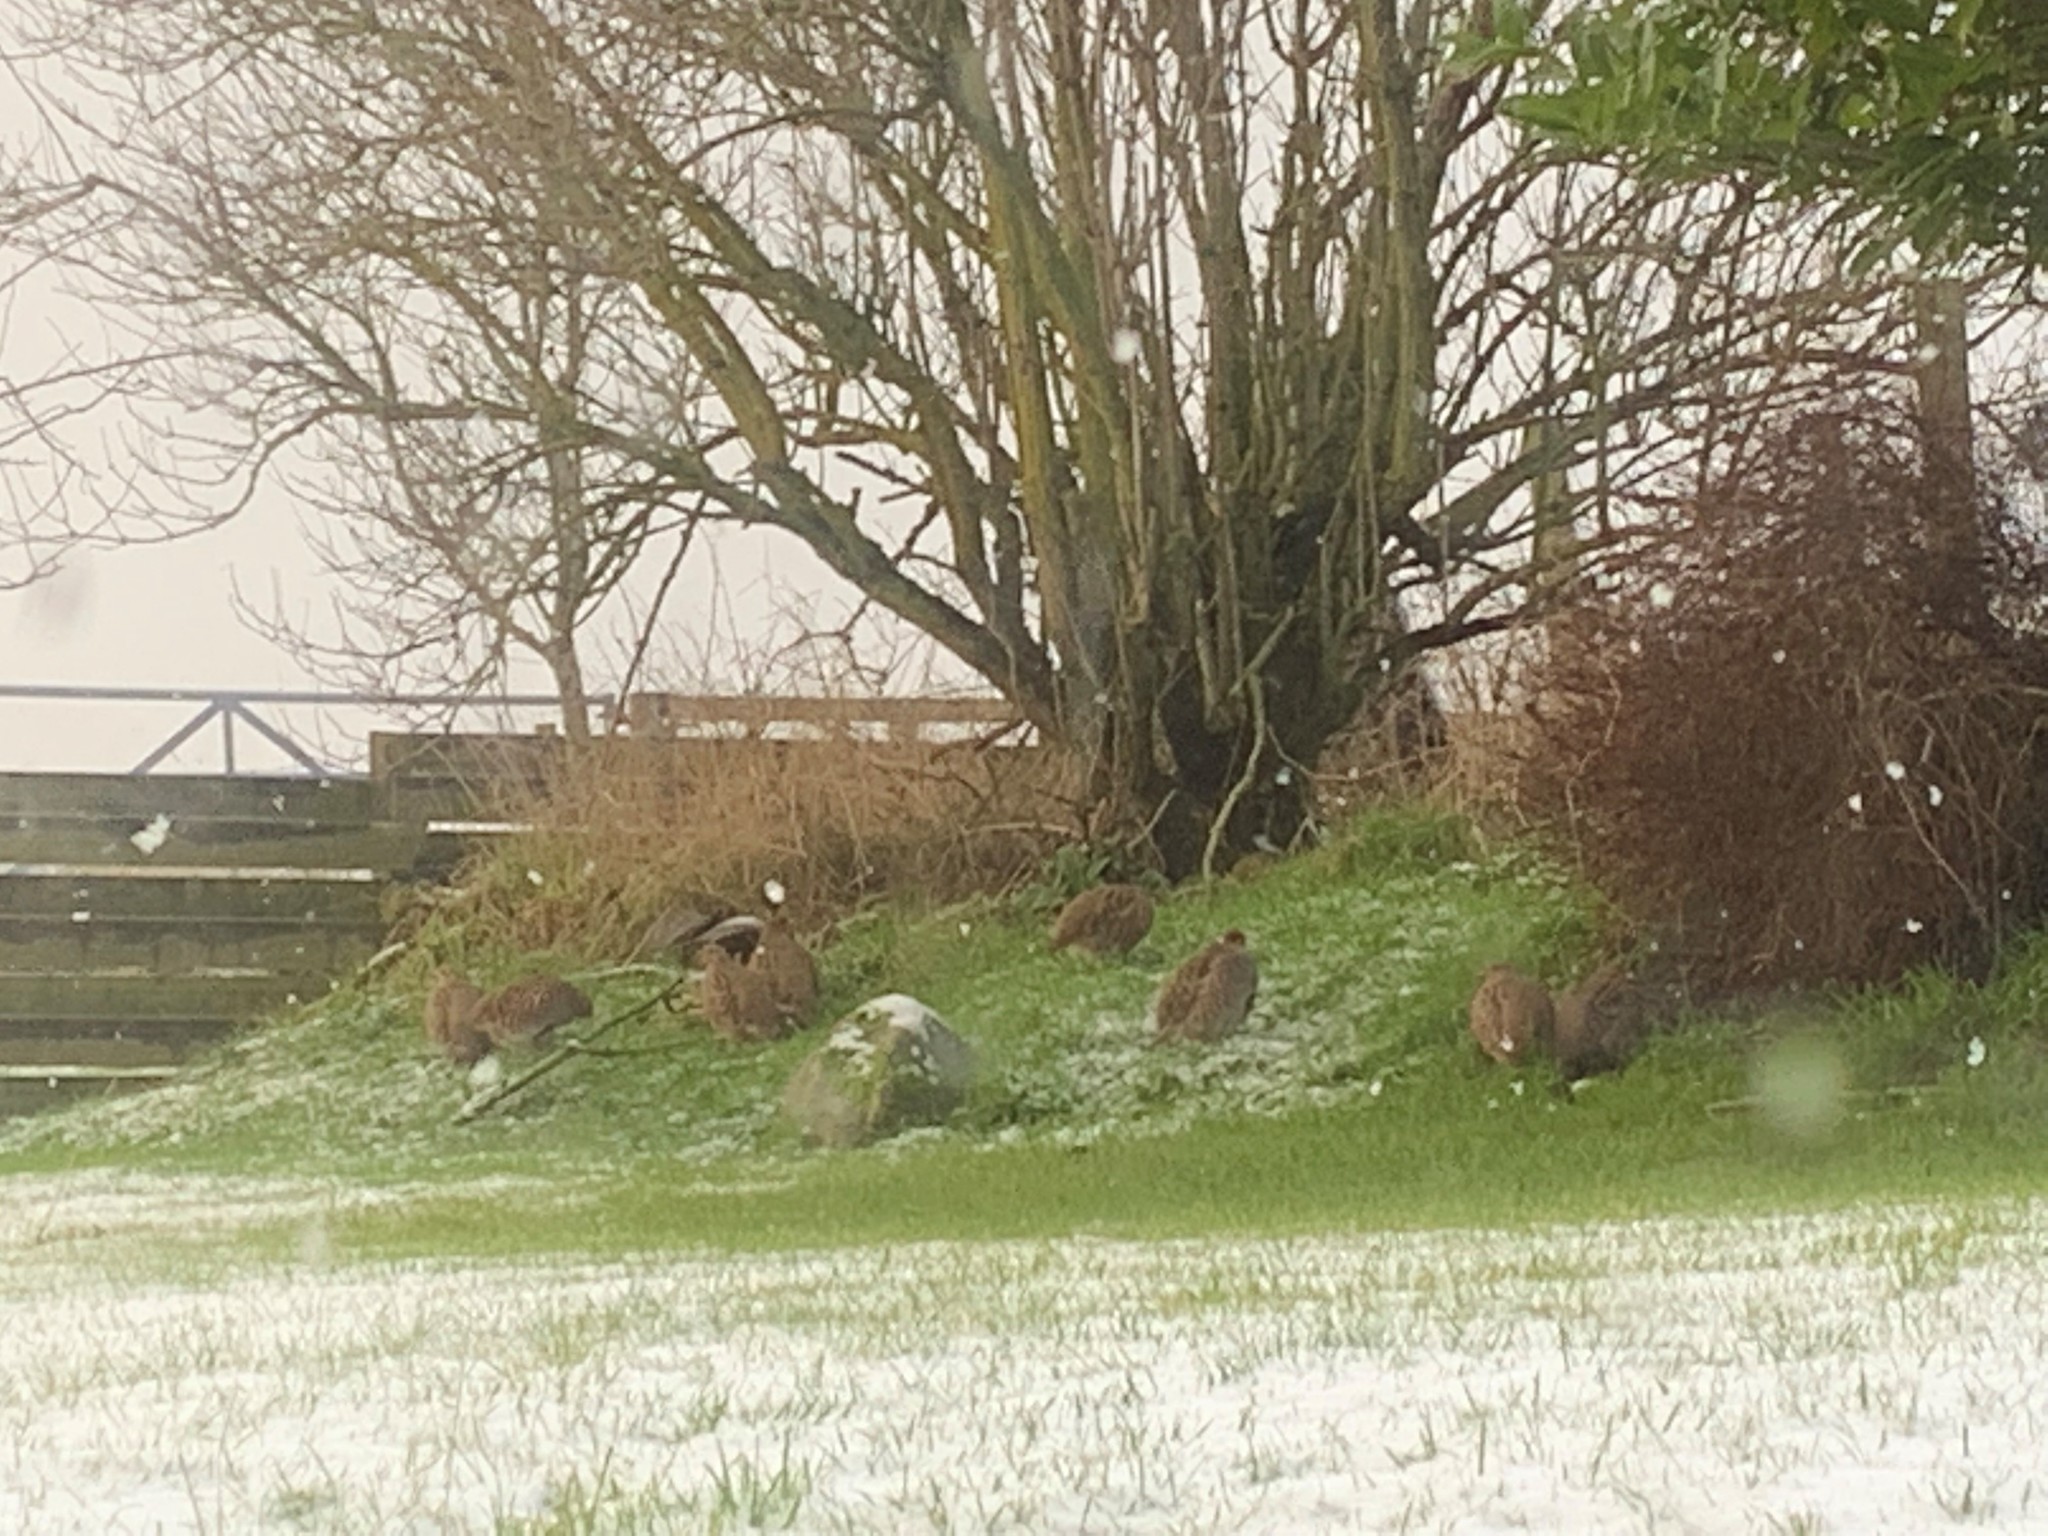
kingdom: Animalia
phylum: Chordata
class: Aves
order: Galliformes
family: Phasianidae
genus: Perdix
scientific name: Perdix perdix
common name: Grey partridge
